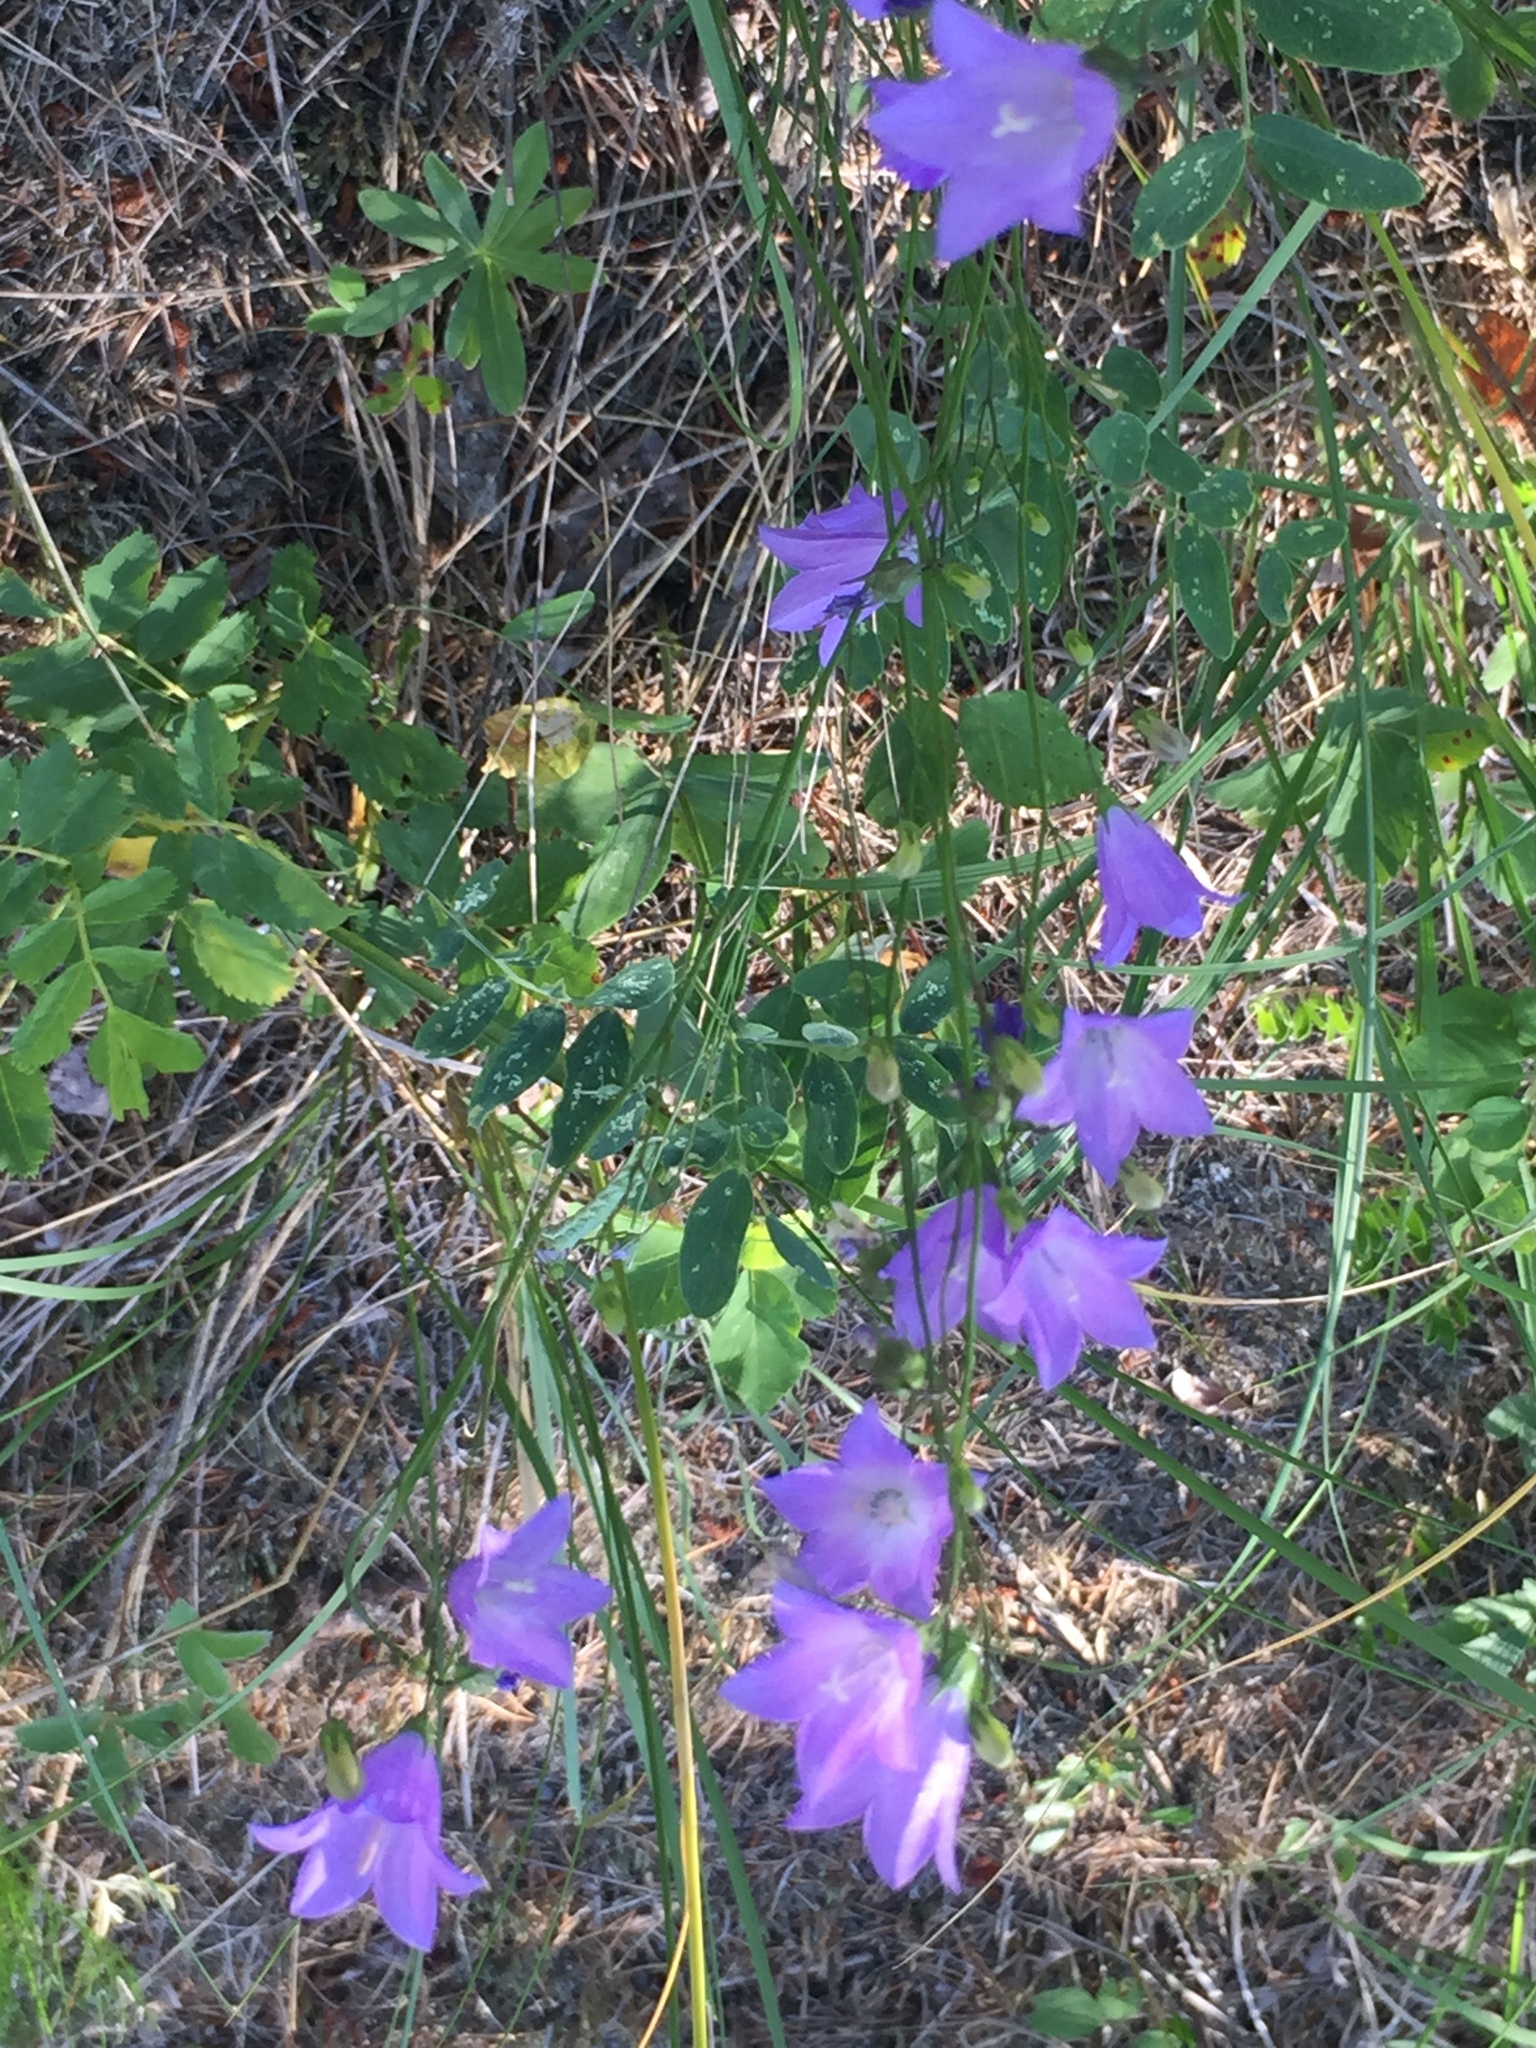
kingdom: Plantae
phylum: Tracheophyta
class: Magnoliopsida
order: Asterales
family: Campanulaceae
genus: Campanula
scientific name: Campanula petiolata
